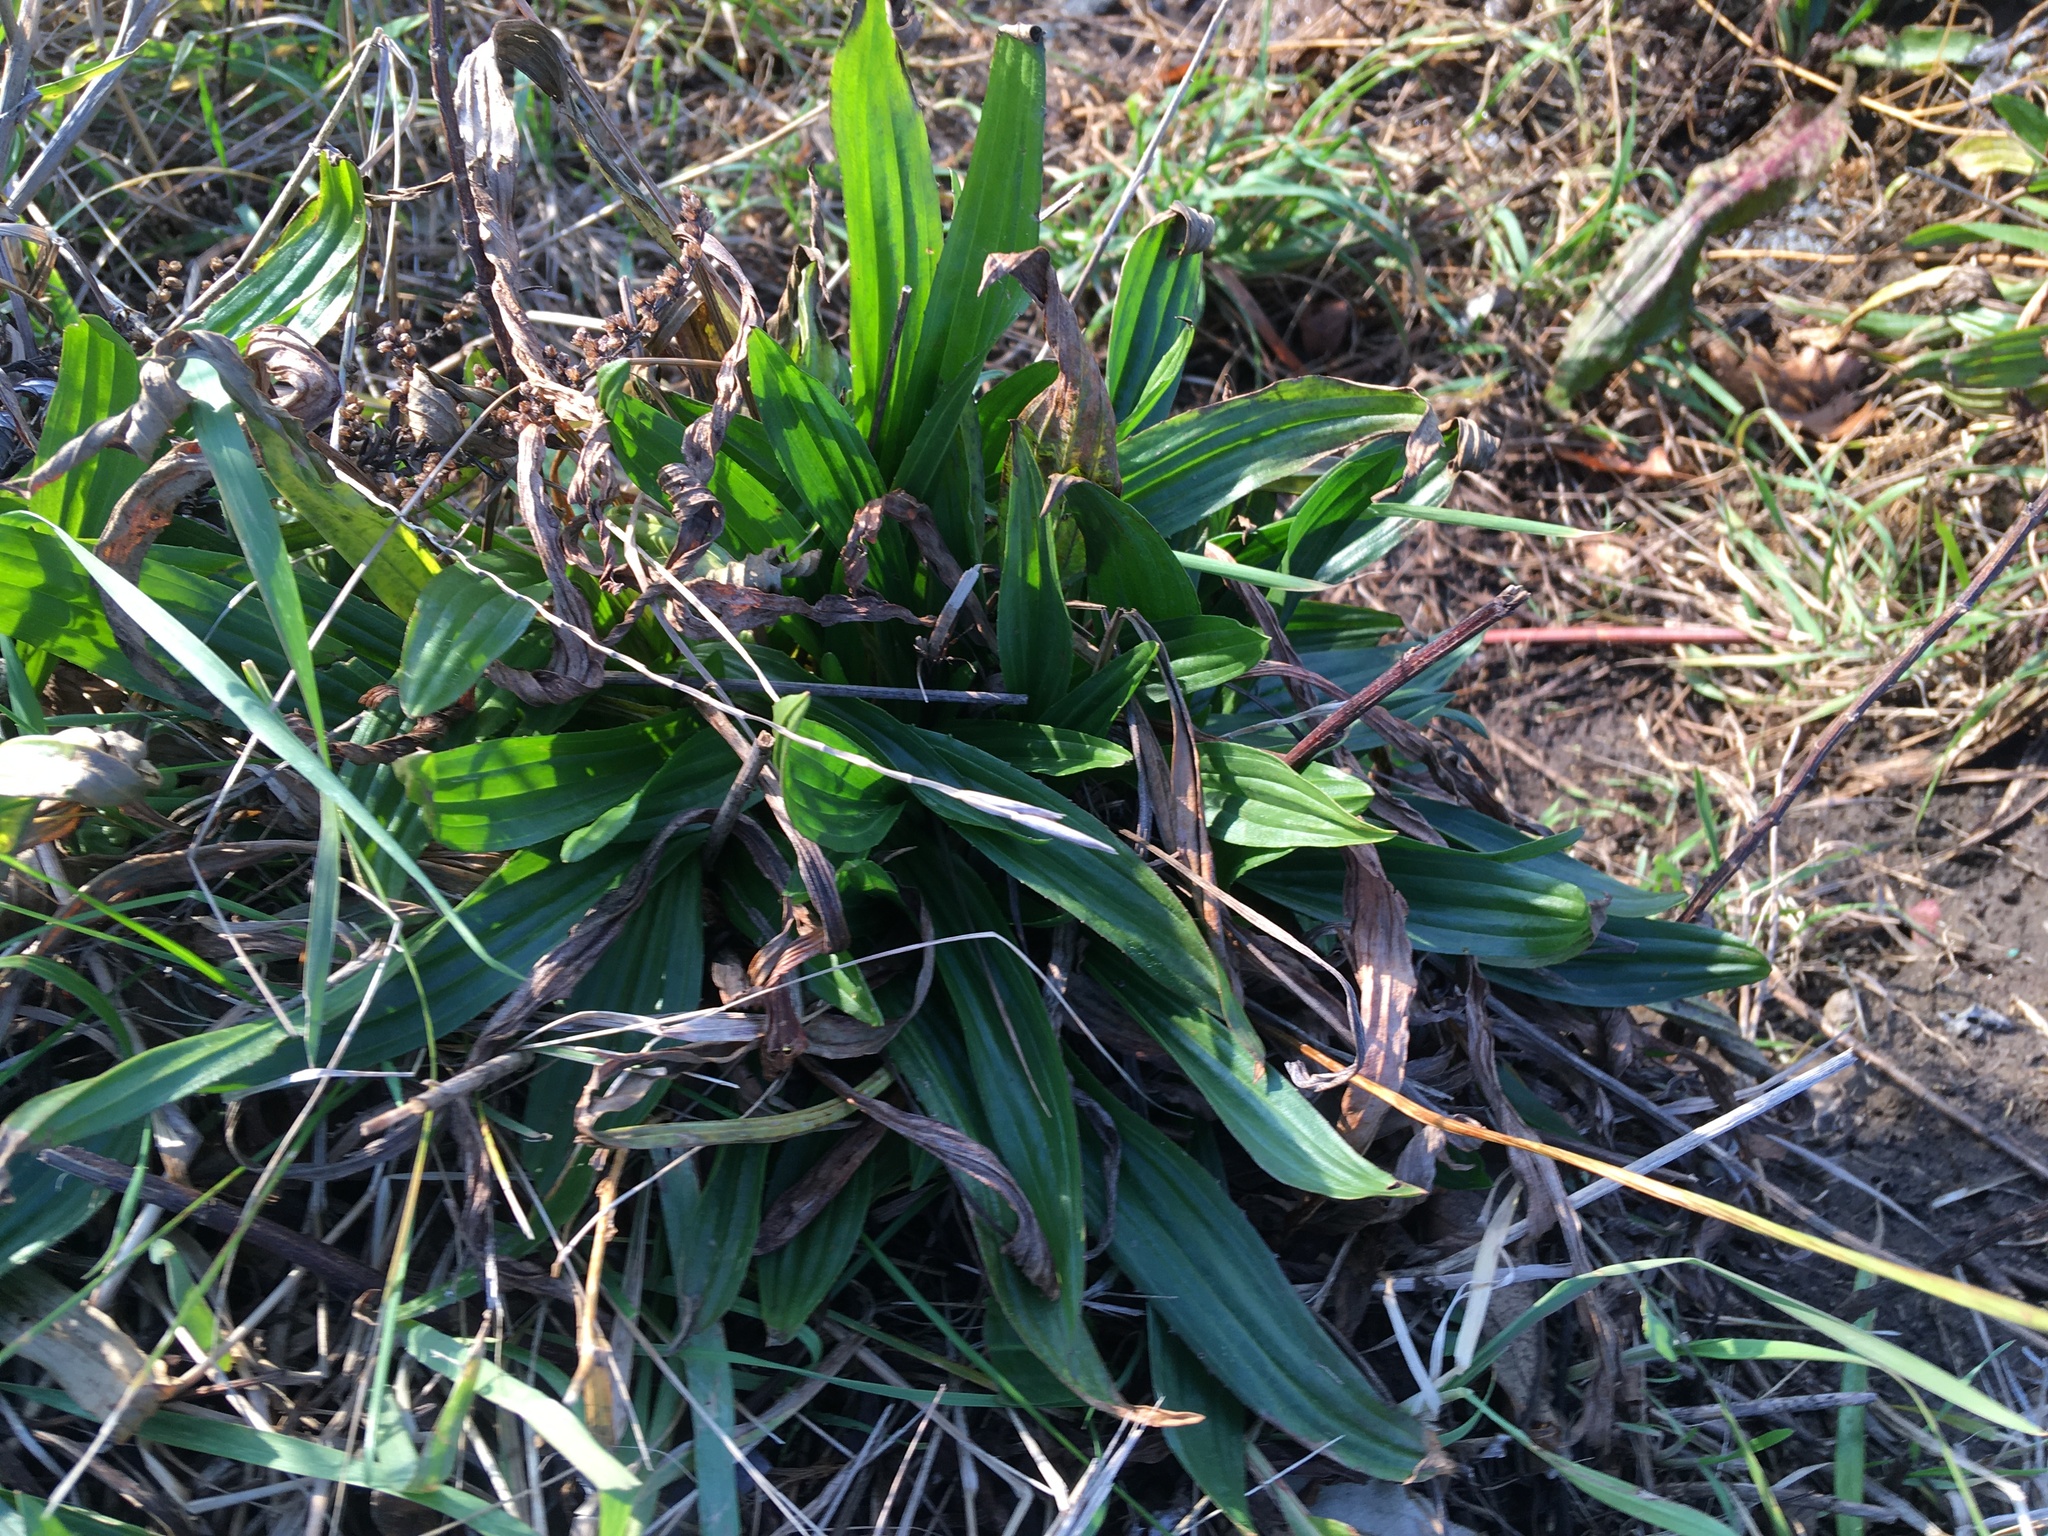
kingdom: Plantae
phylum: Tracheophyta
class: Magnoliopsida
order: Lamiales
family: Plantaginaceae
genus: Plantago
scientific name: Plantago lanceolata
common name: Ribwort plantain
